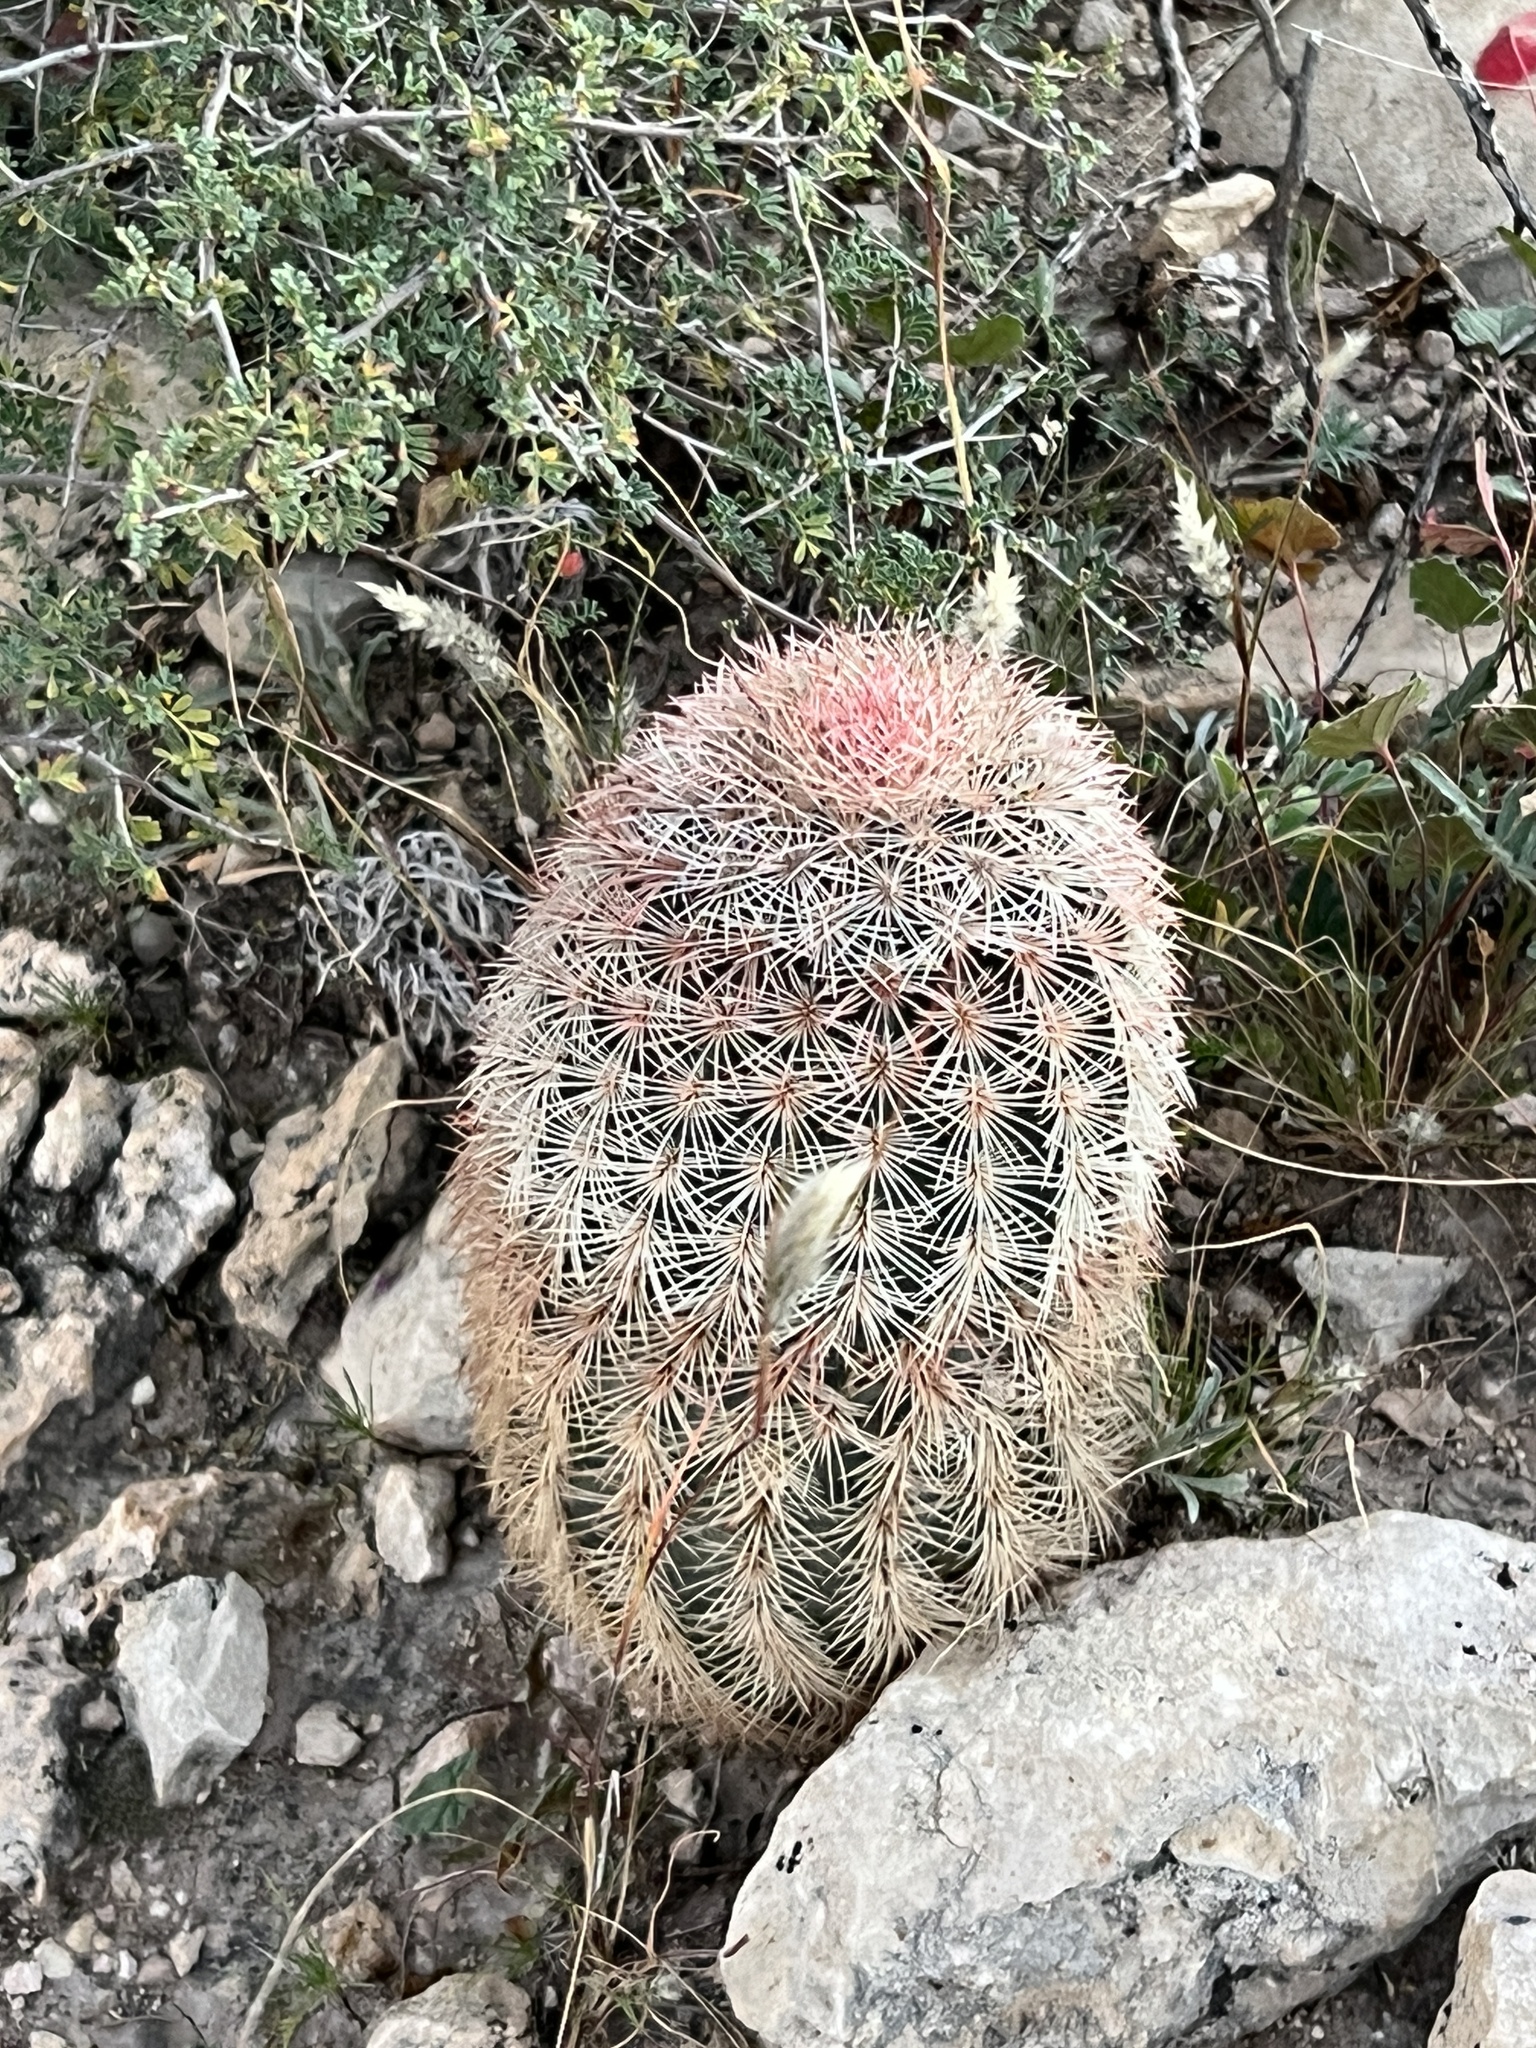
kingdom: Plantae
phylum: Tracheophyta
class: Magnoliopsida
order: Caryophyllales
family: Cactaceae
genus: Echinocereus
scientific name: Echinocereus dasyacanthus
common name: Spiny hedgehog cactus
